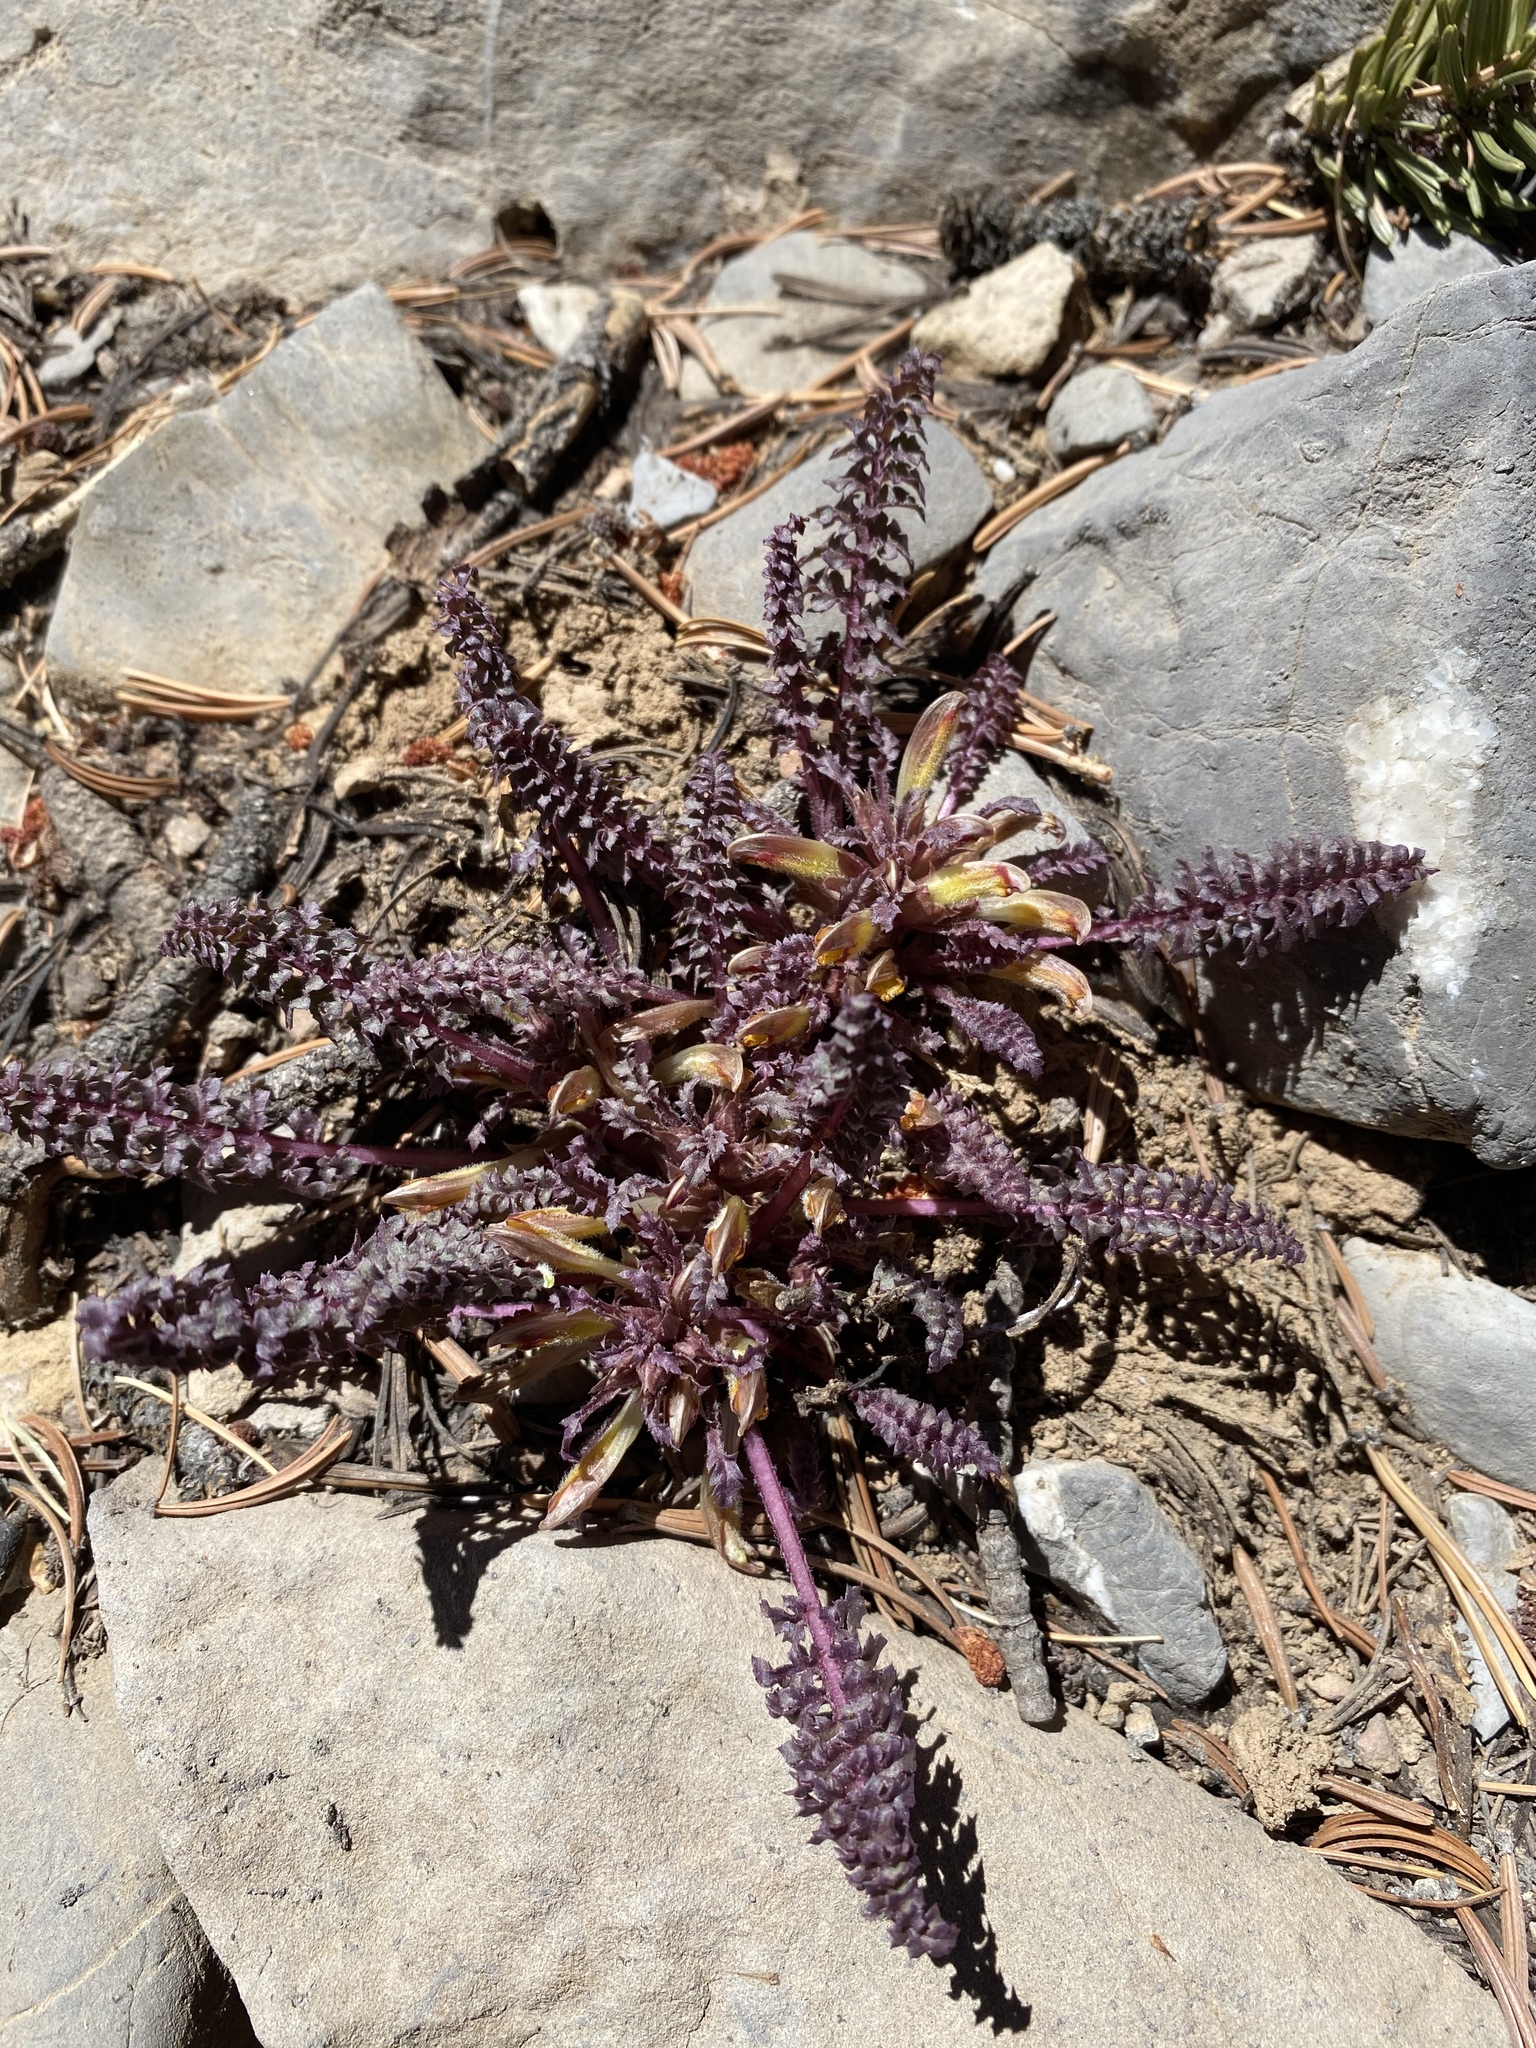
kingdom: Plantae
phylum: Tracheophyta
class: Magnoliopsida
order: Lamiales
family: Orobanchaceae
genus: Pedicularis
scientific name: Pedicularis semibarbata
